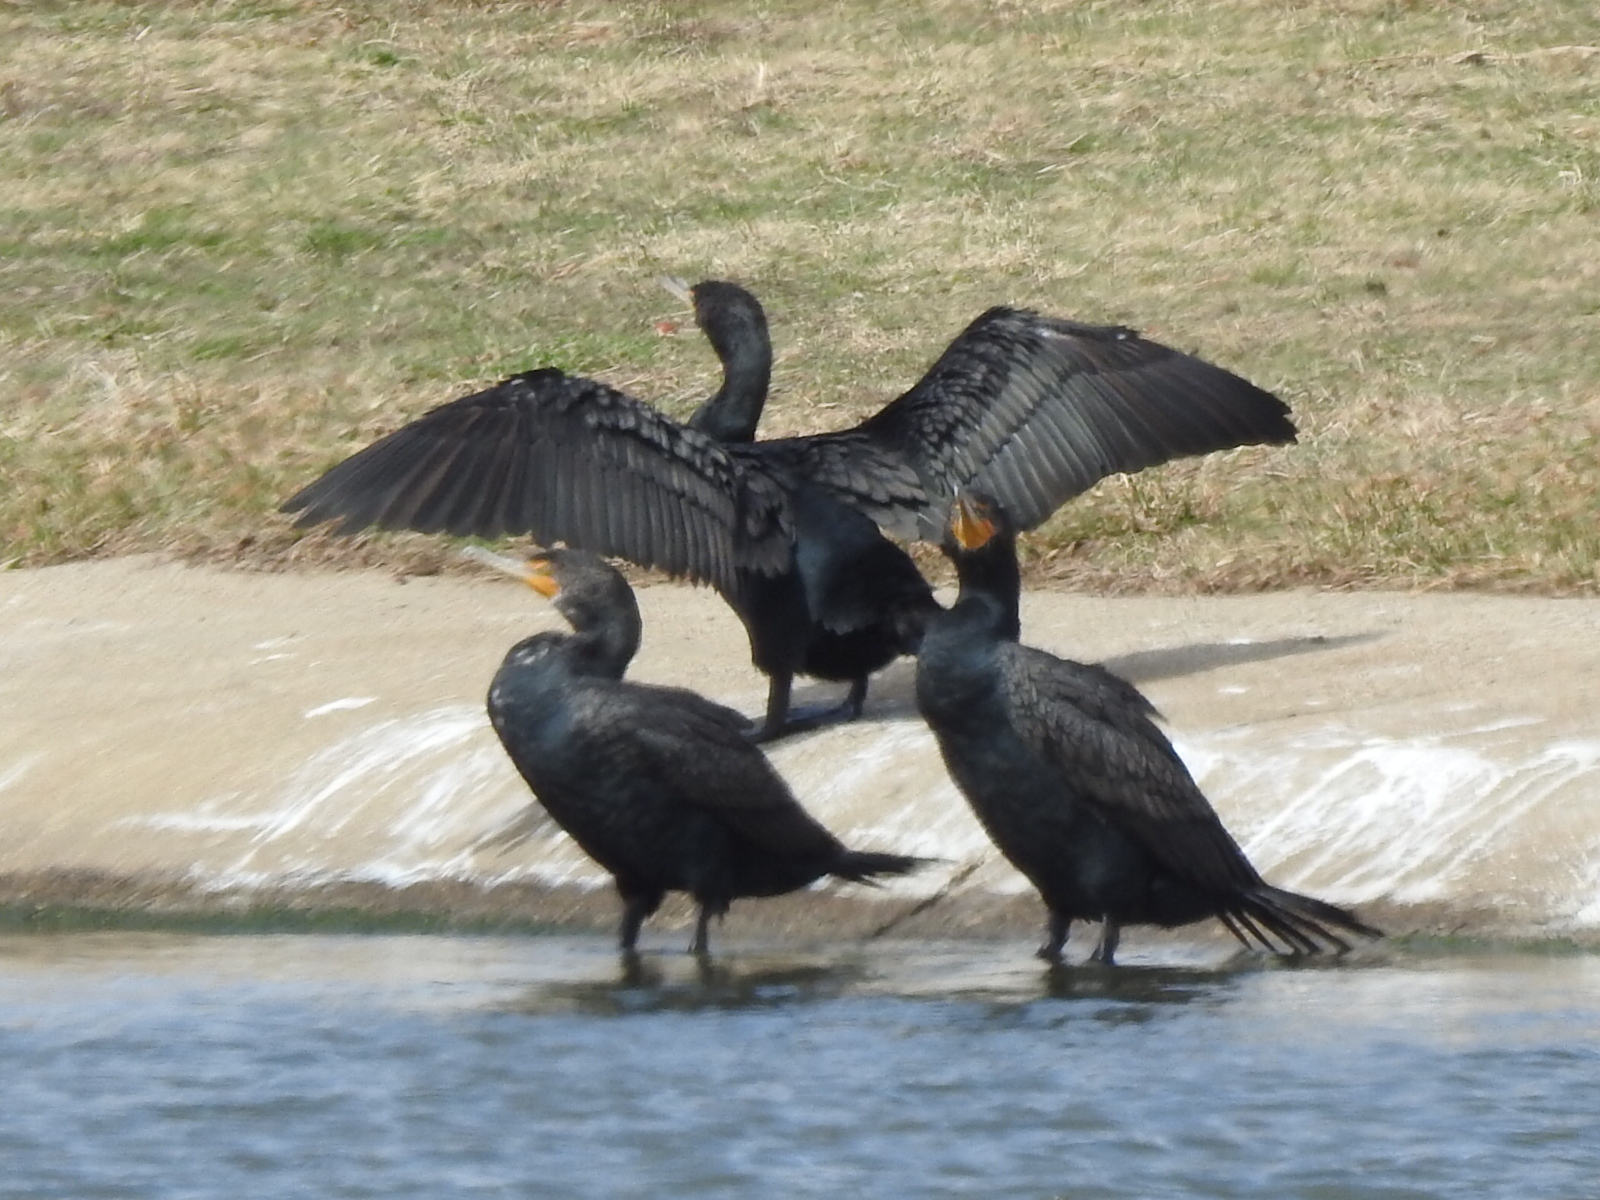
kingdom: Animalia
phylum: Chordata
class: Aves
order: Suliformes
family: Phalacrocoracidae
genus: Phalacrocorax
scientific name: Phalacrocorax auritus
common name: Double-crested cormorant
